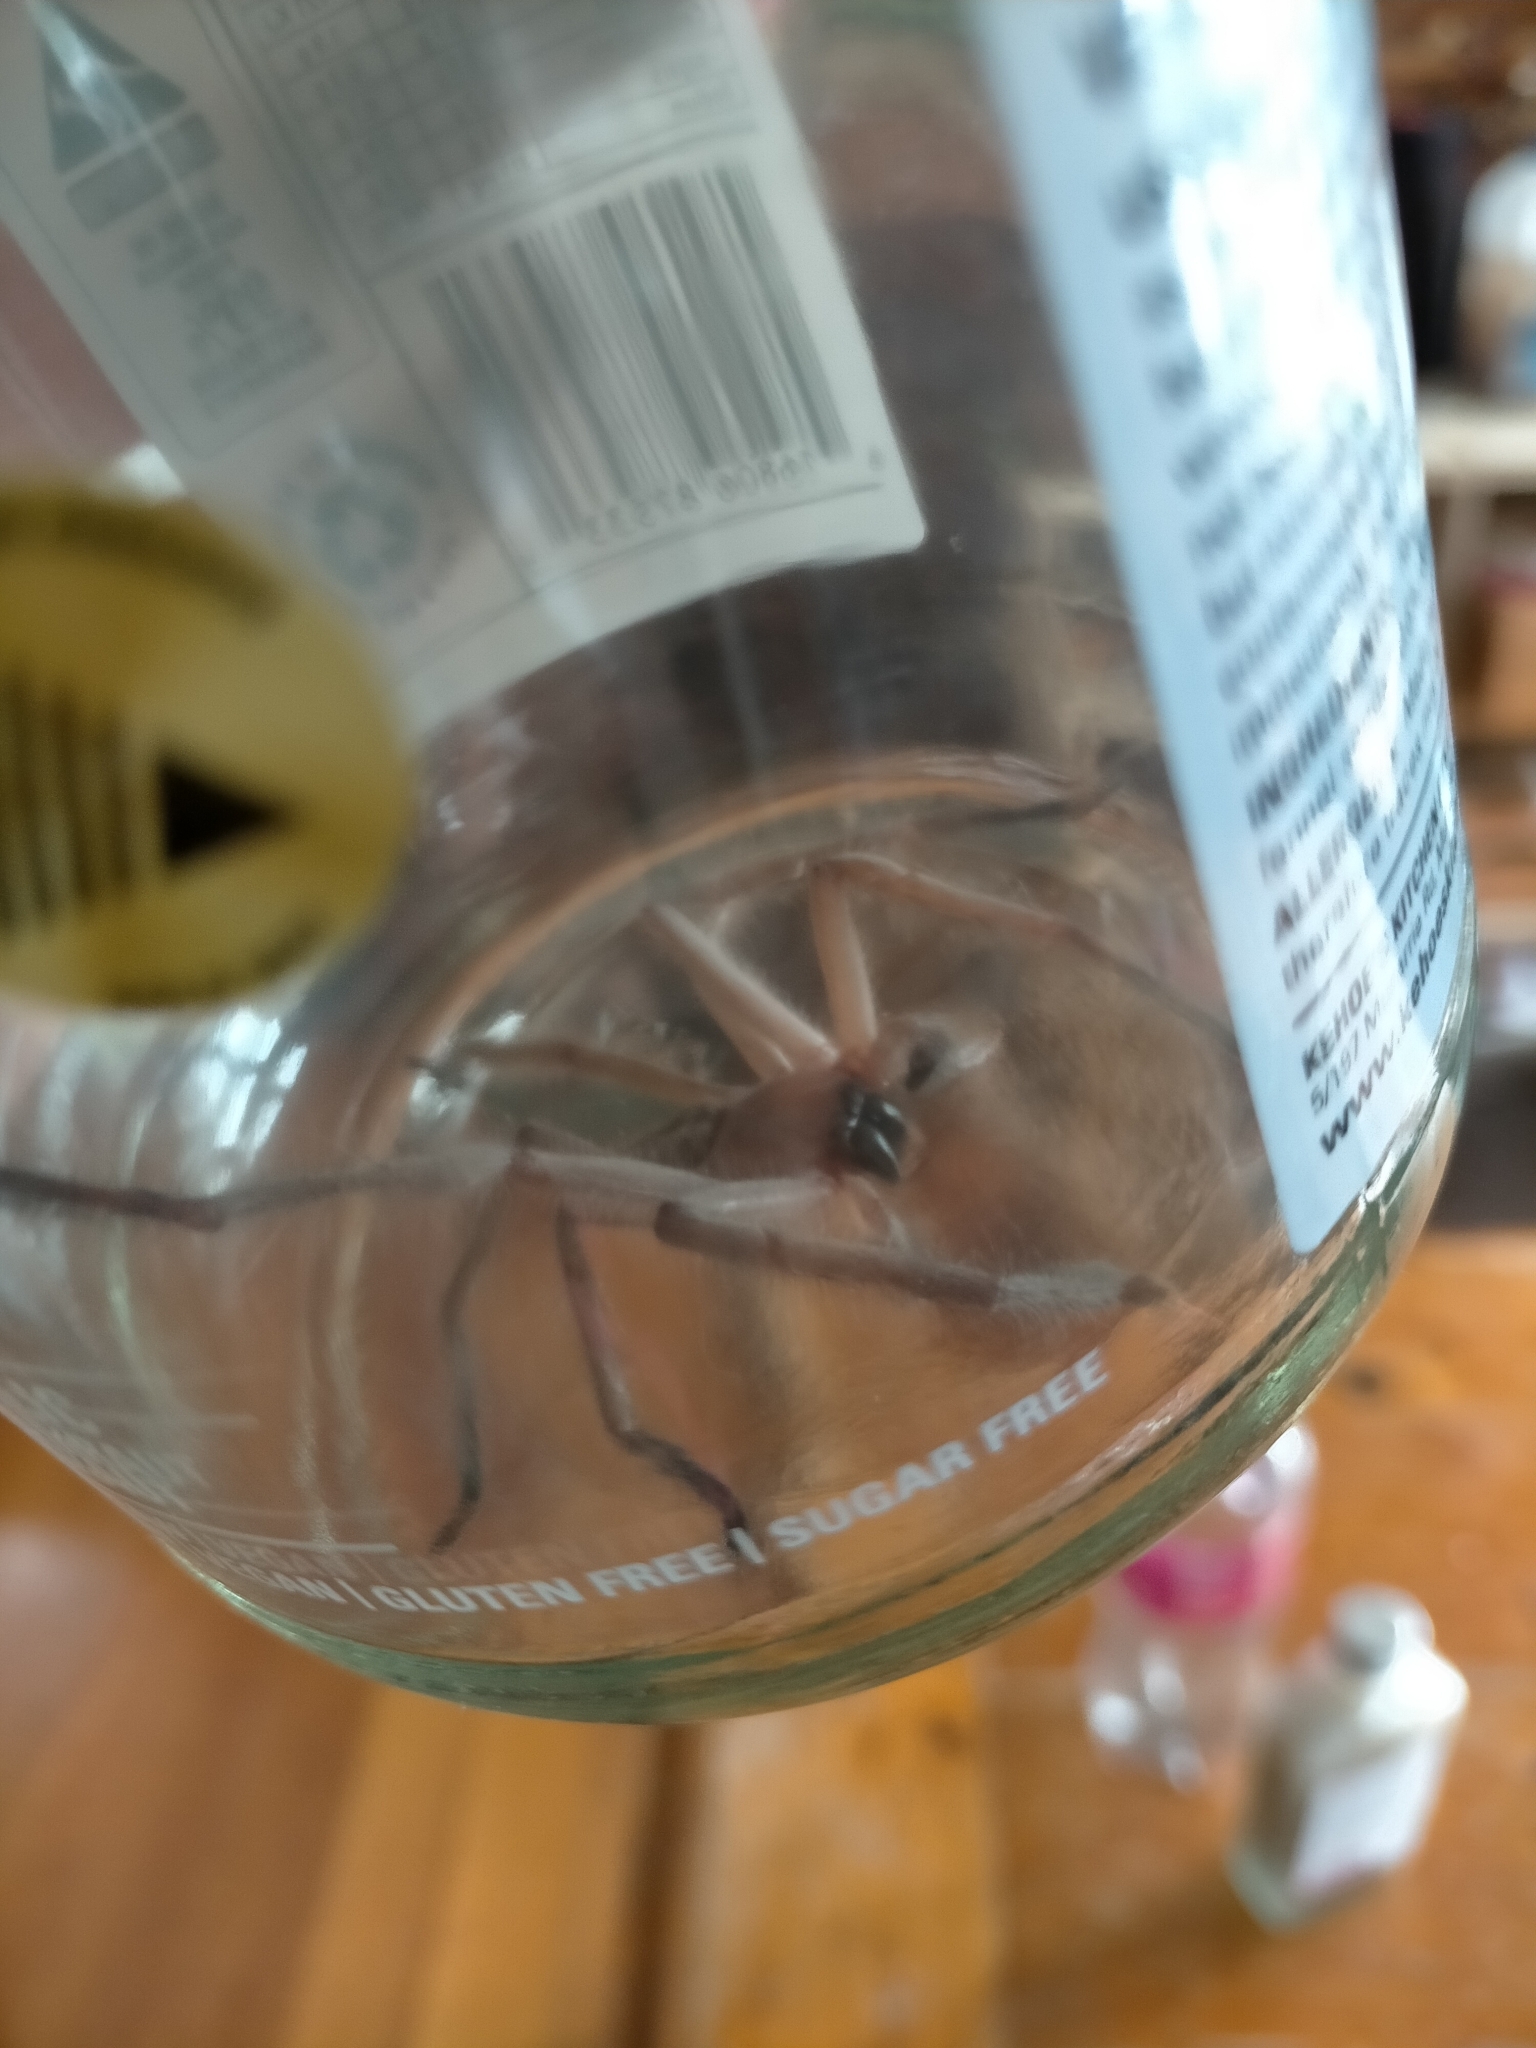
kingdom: Animalia
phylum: Arthropoda
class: Arachnida
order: Araneae
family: Sparassidae
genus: Delena
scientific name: Delena cancerides
